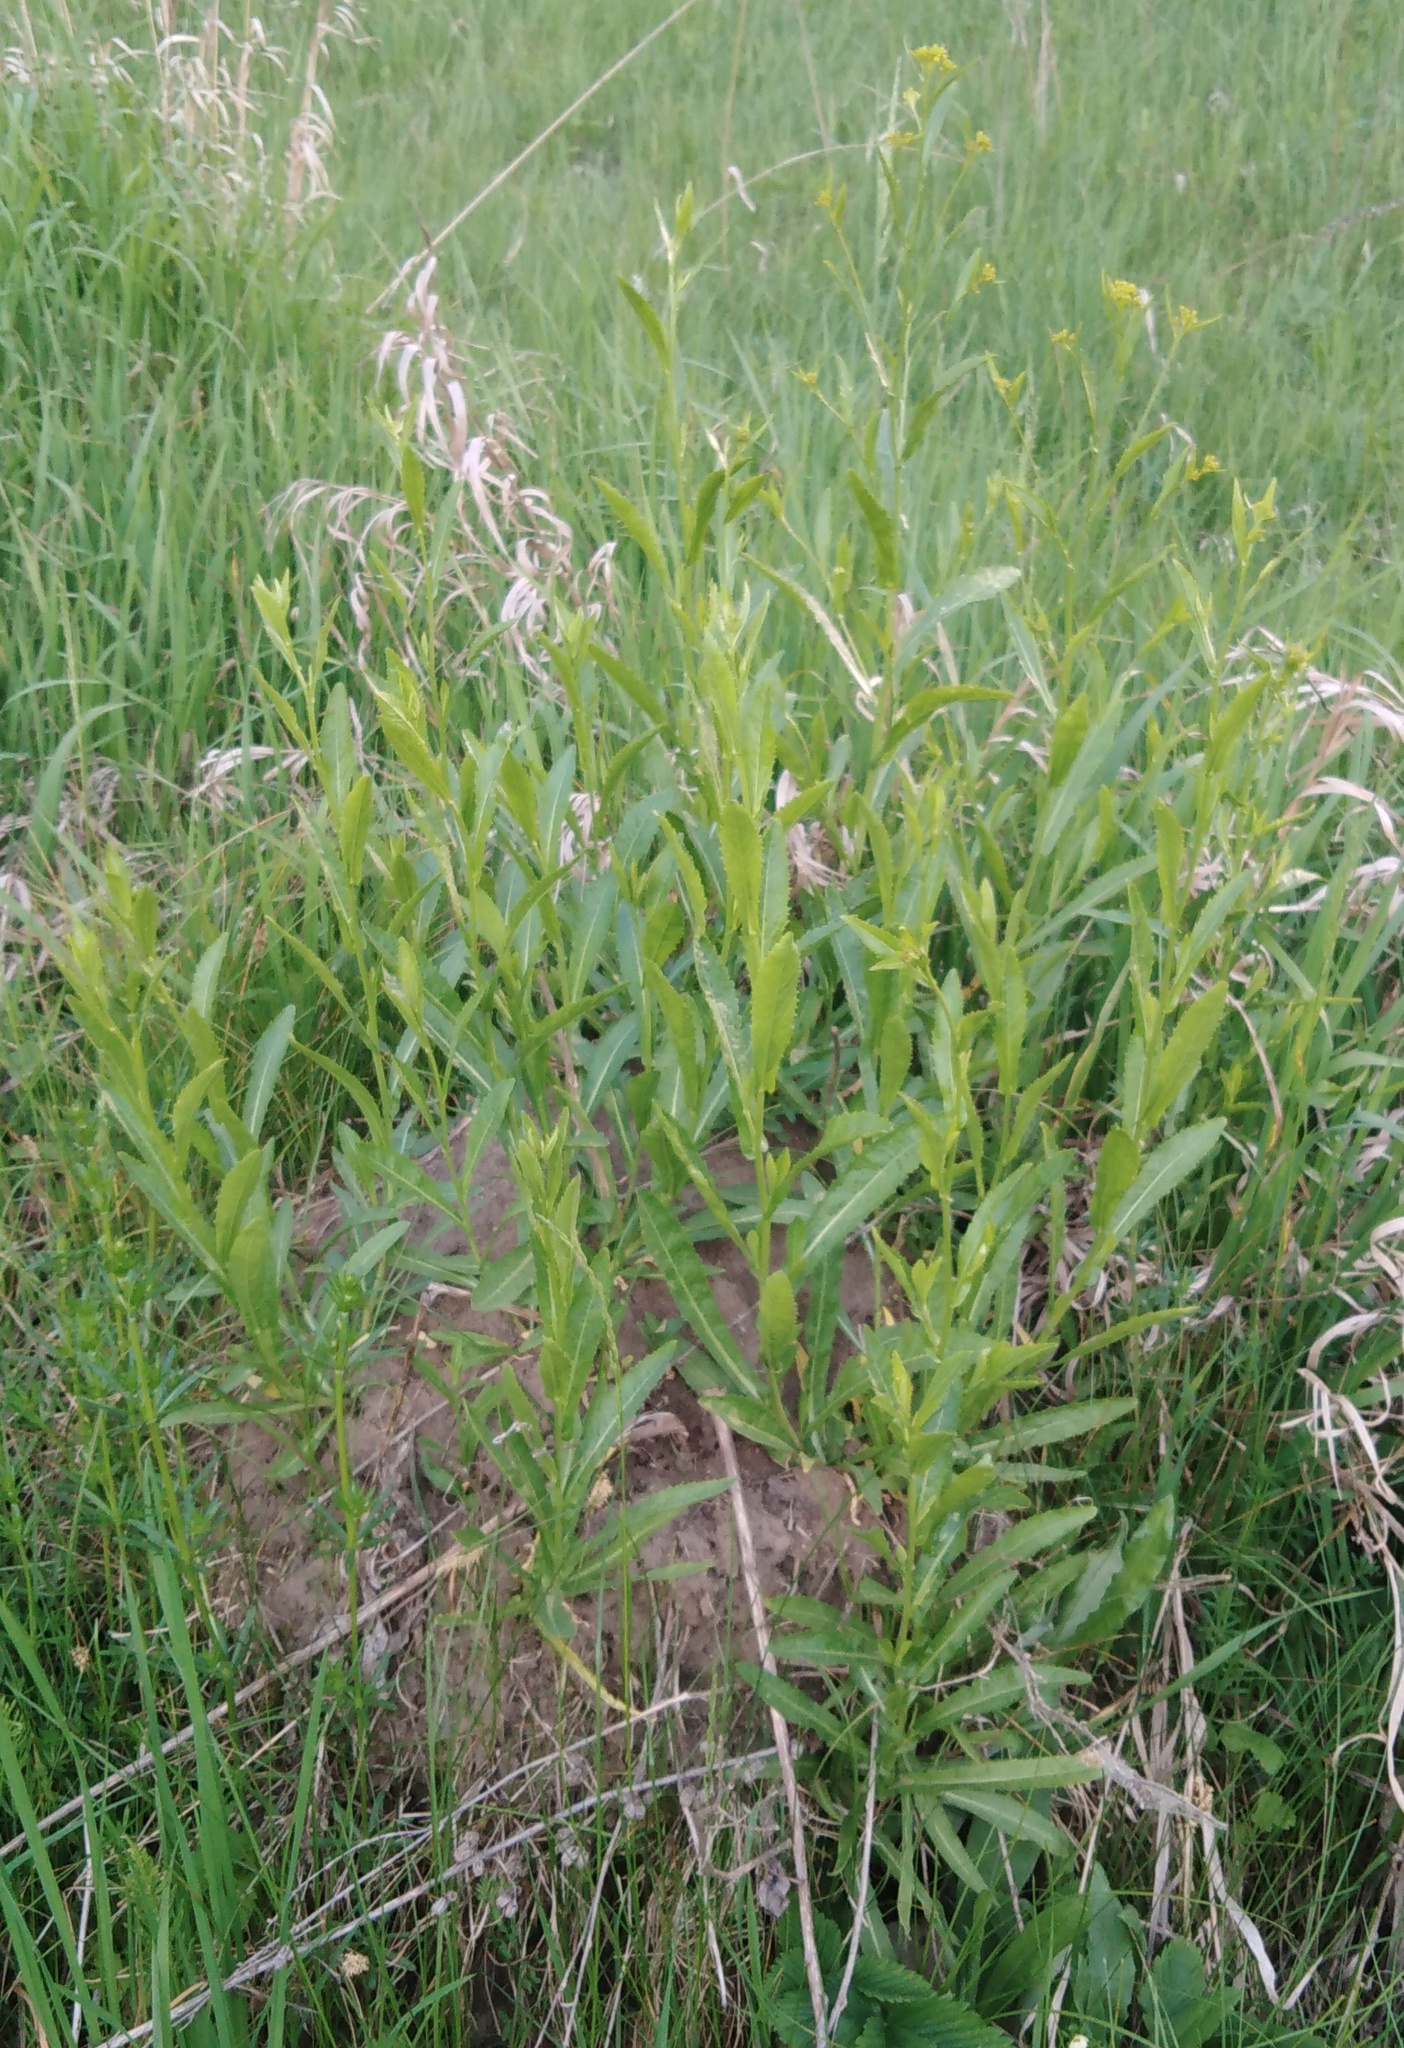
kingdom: Plantae
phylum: Tracheophyta
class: Magnoliopsida
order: Brassicales
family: Brassicaceae
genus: Rorippa
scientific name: Rorippa austriaca
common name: Austrian yellow-cress
